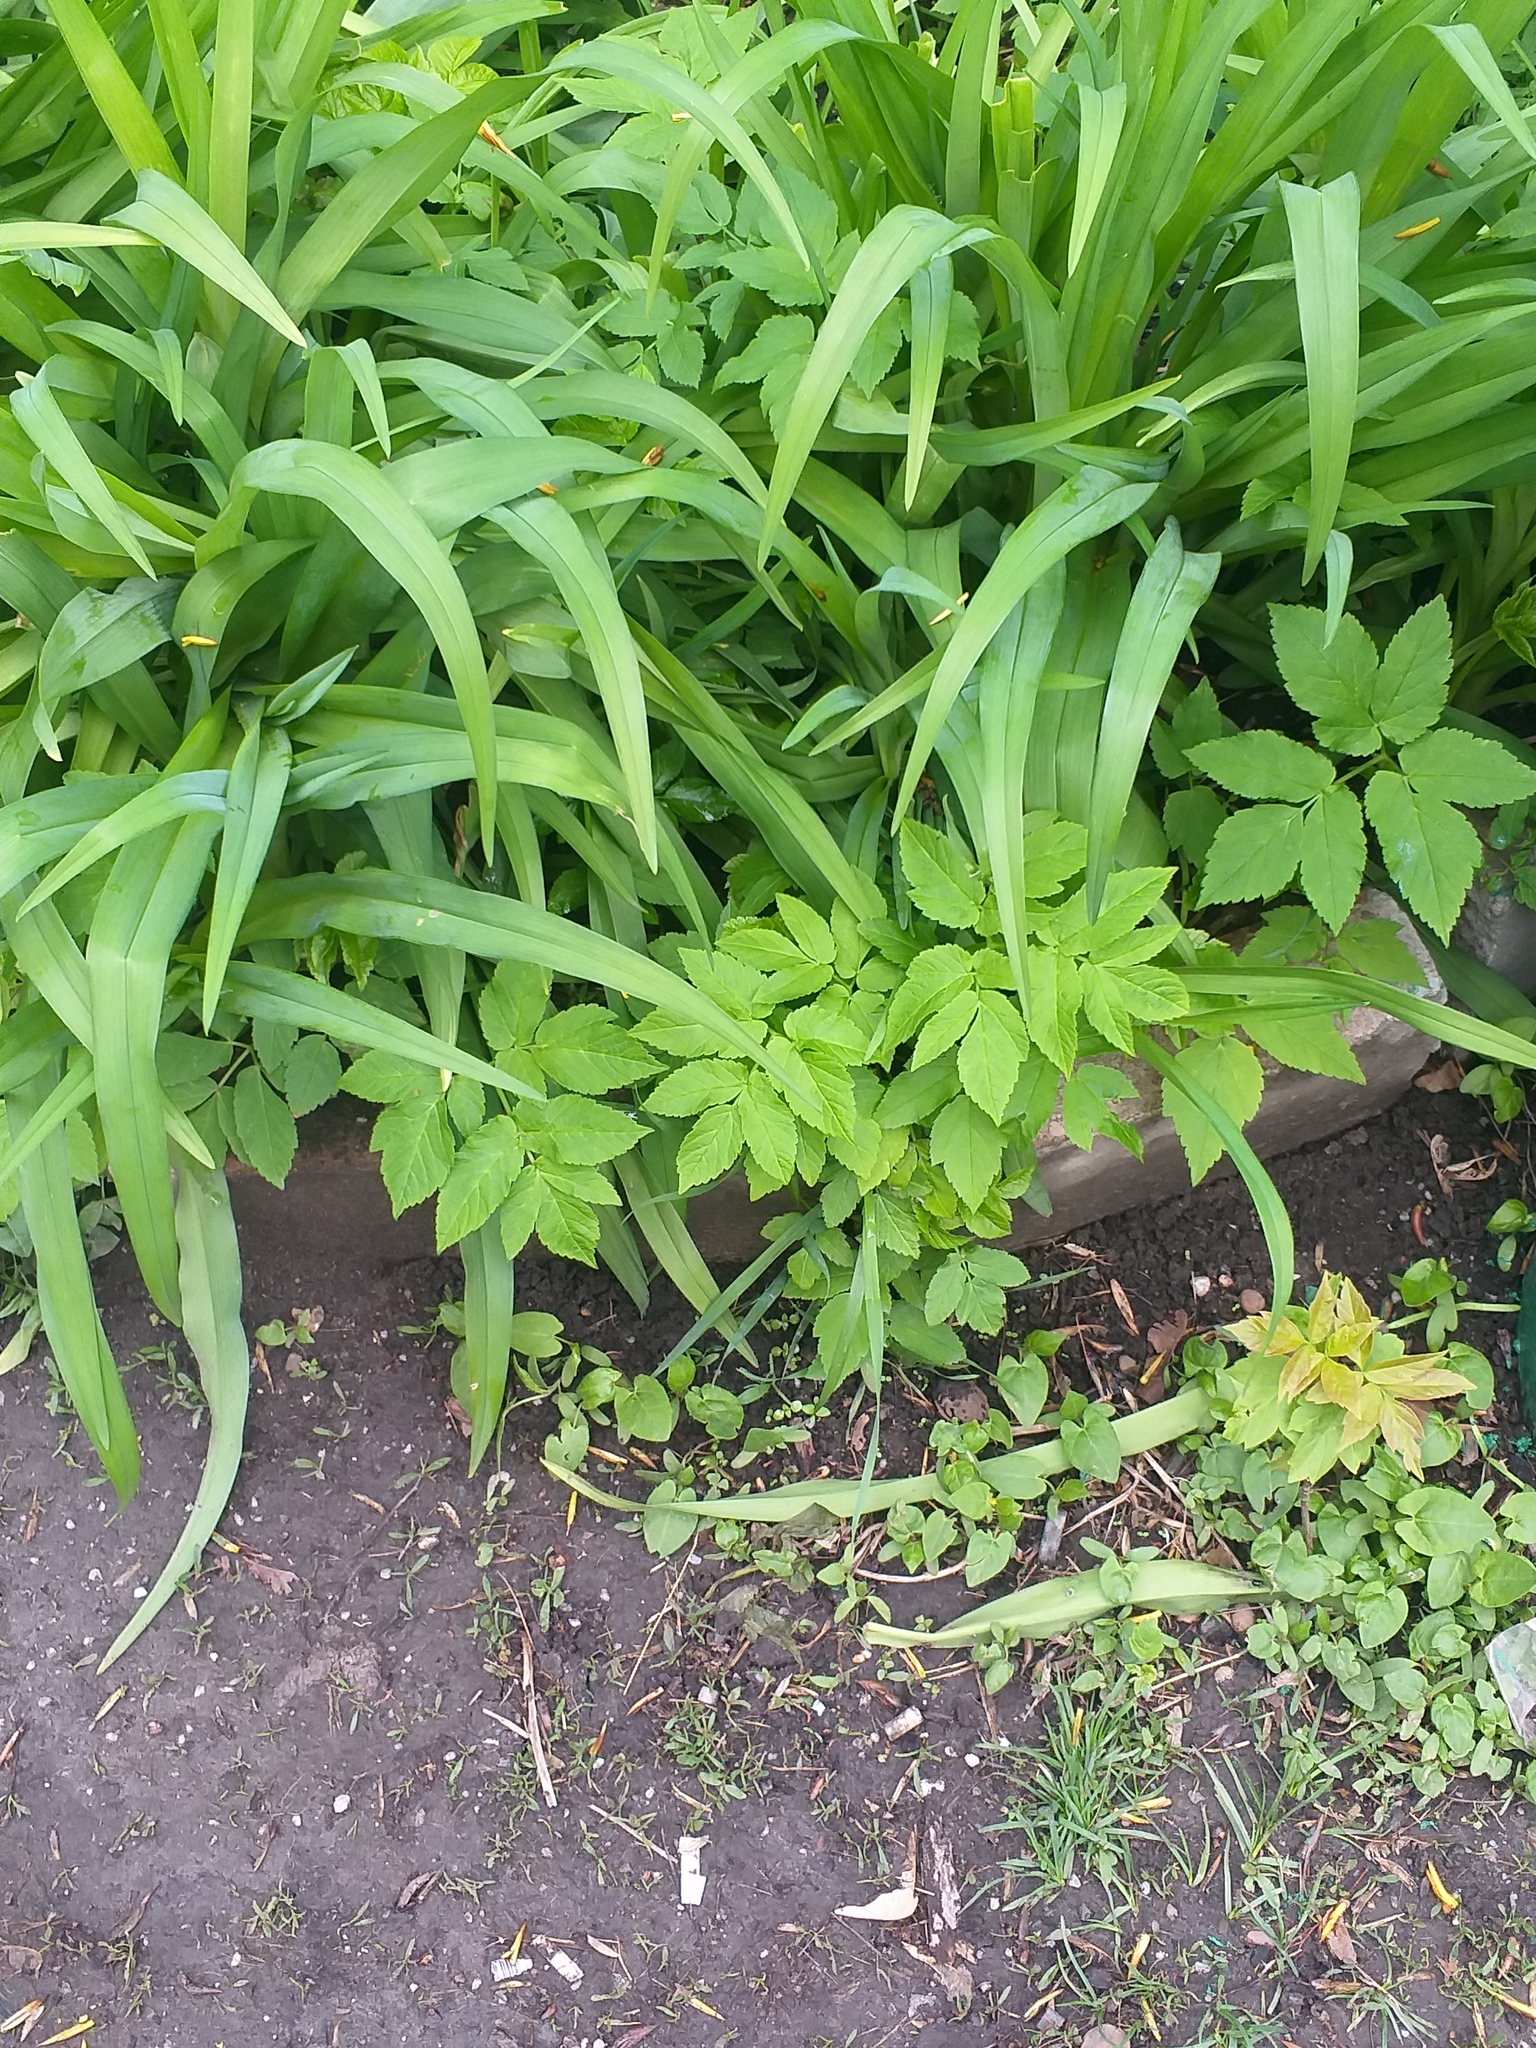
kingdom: Plantae
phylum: Tracheophyta
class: Magnoliopsida
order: Apiales
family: Apiaceae
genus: Aegopodium
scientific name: Aegopodium podagraria
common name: Ground-elder
